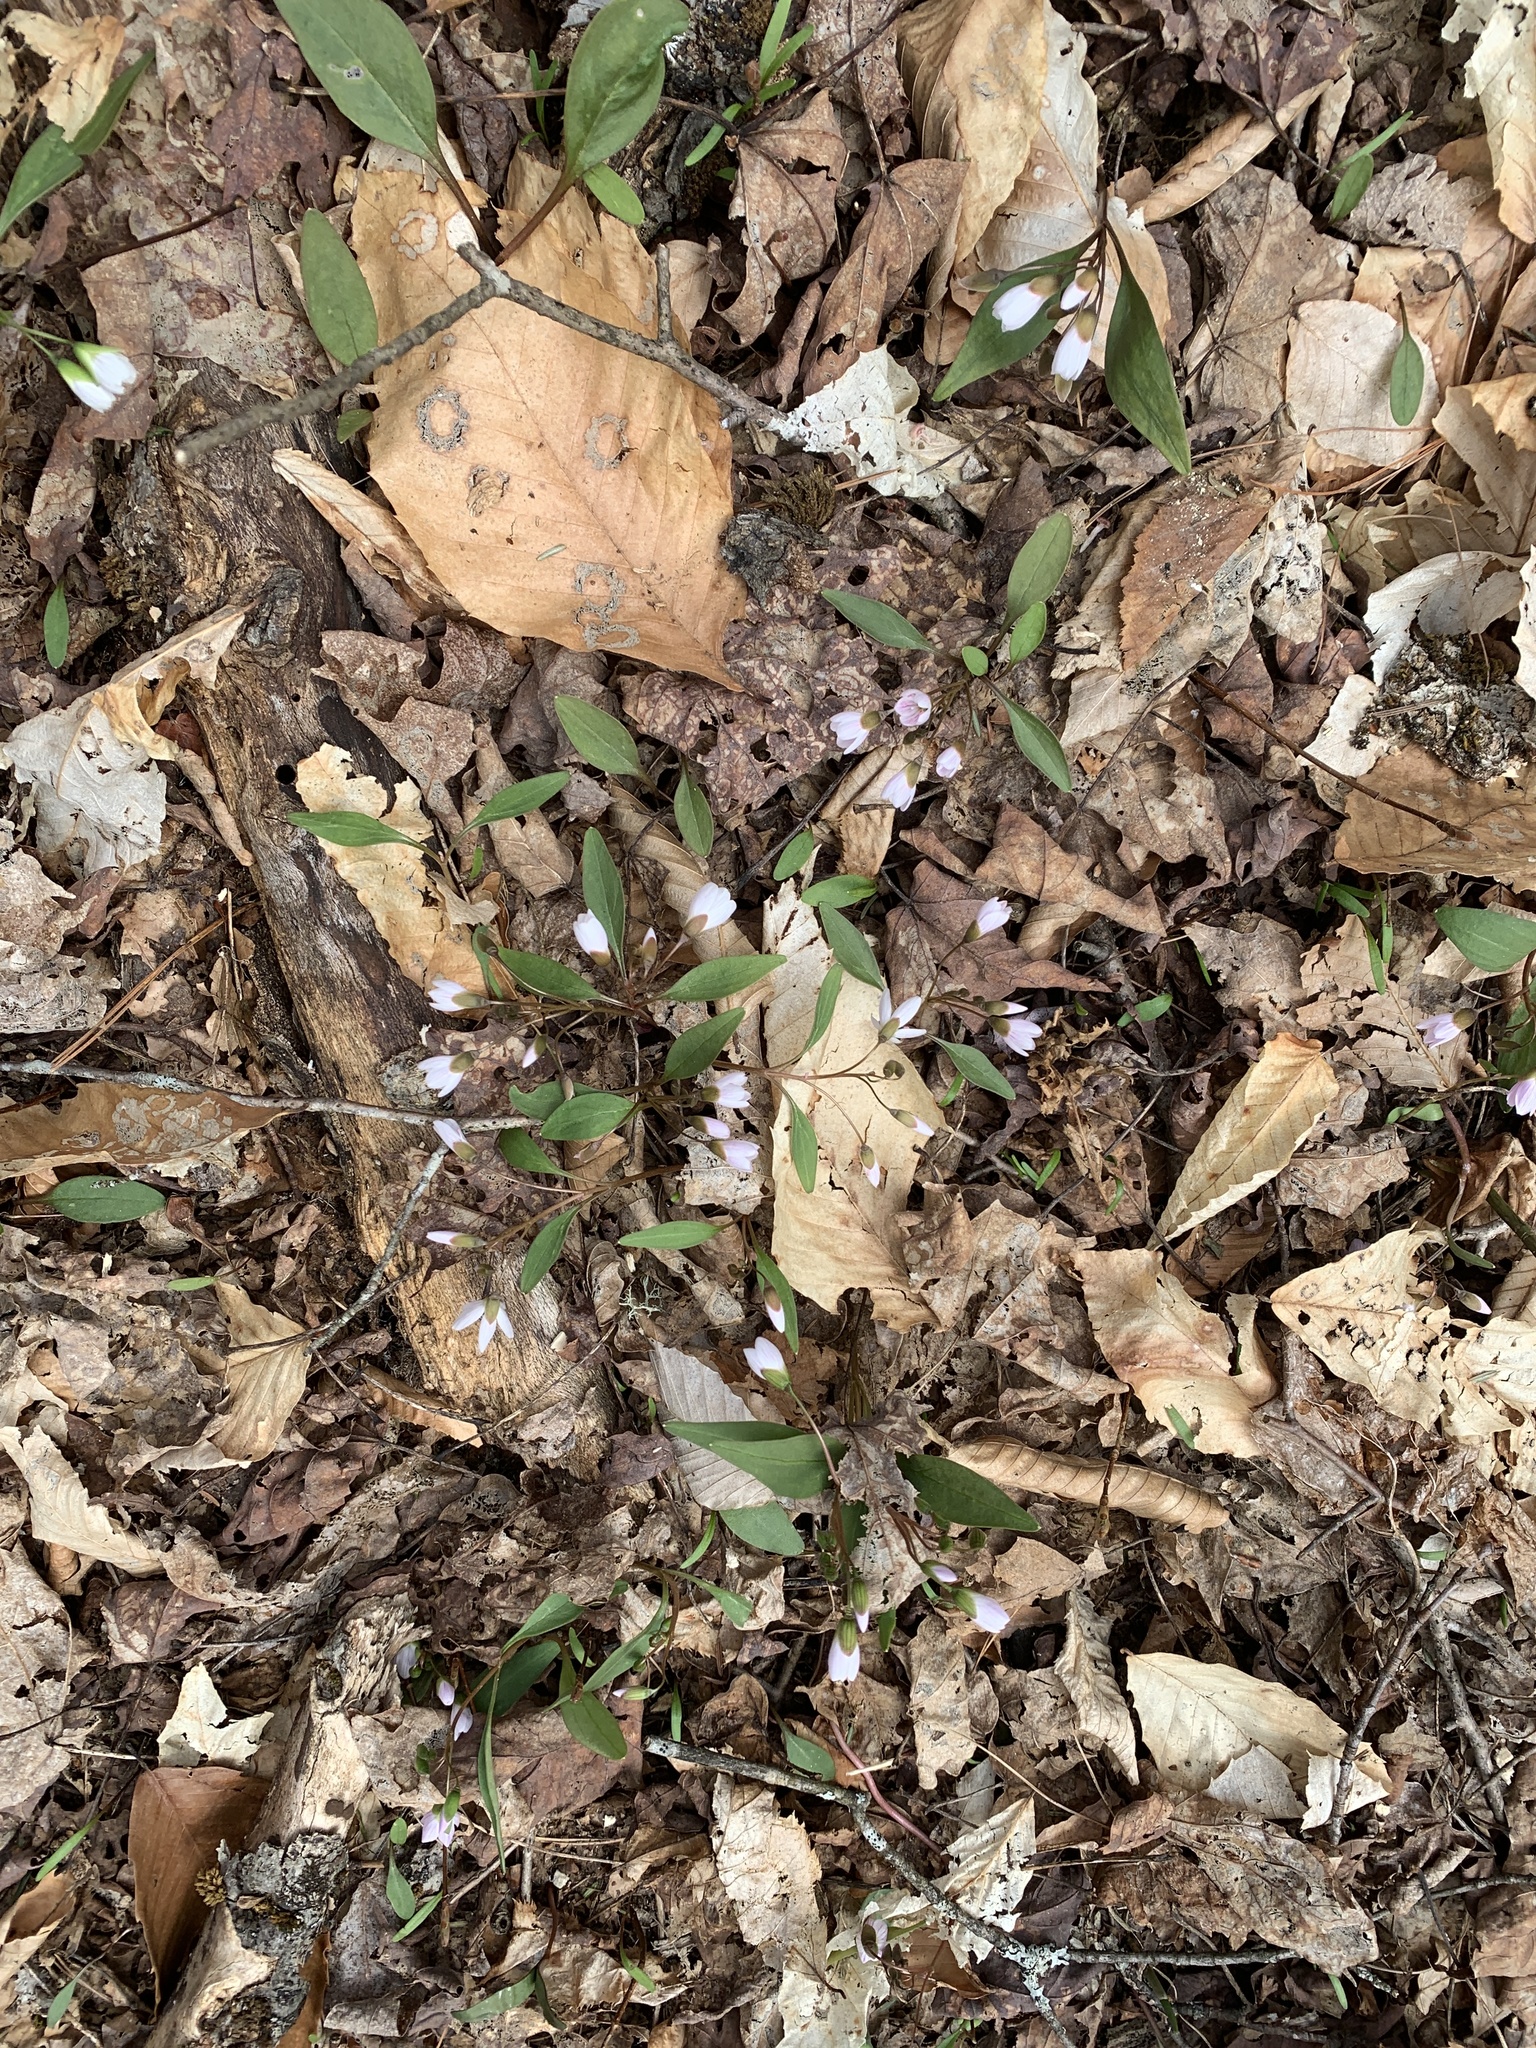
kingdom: Plantae
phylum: Tracheophyta
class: Magnoliopsida
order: Caryophyllales
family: Montiaceae
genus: Claytonia
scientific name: Claytonia caroliniana
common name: Carolina spring beauty
